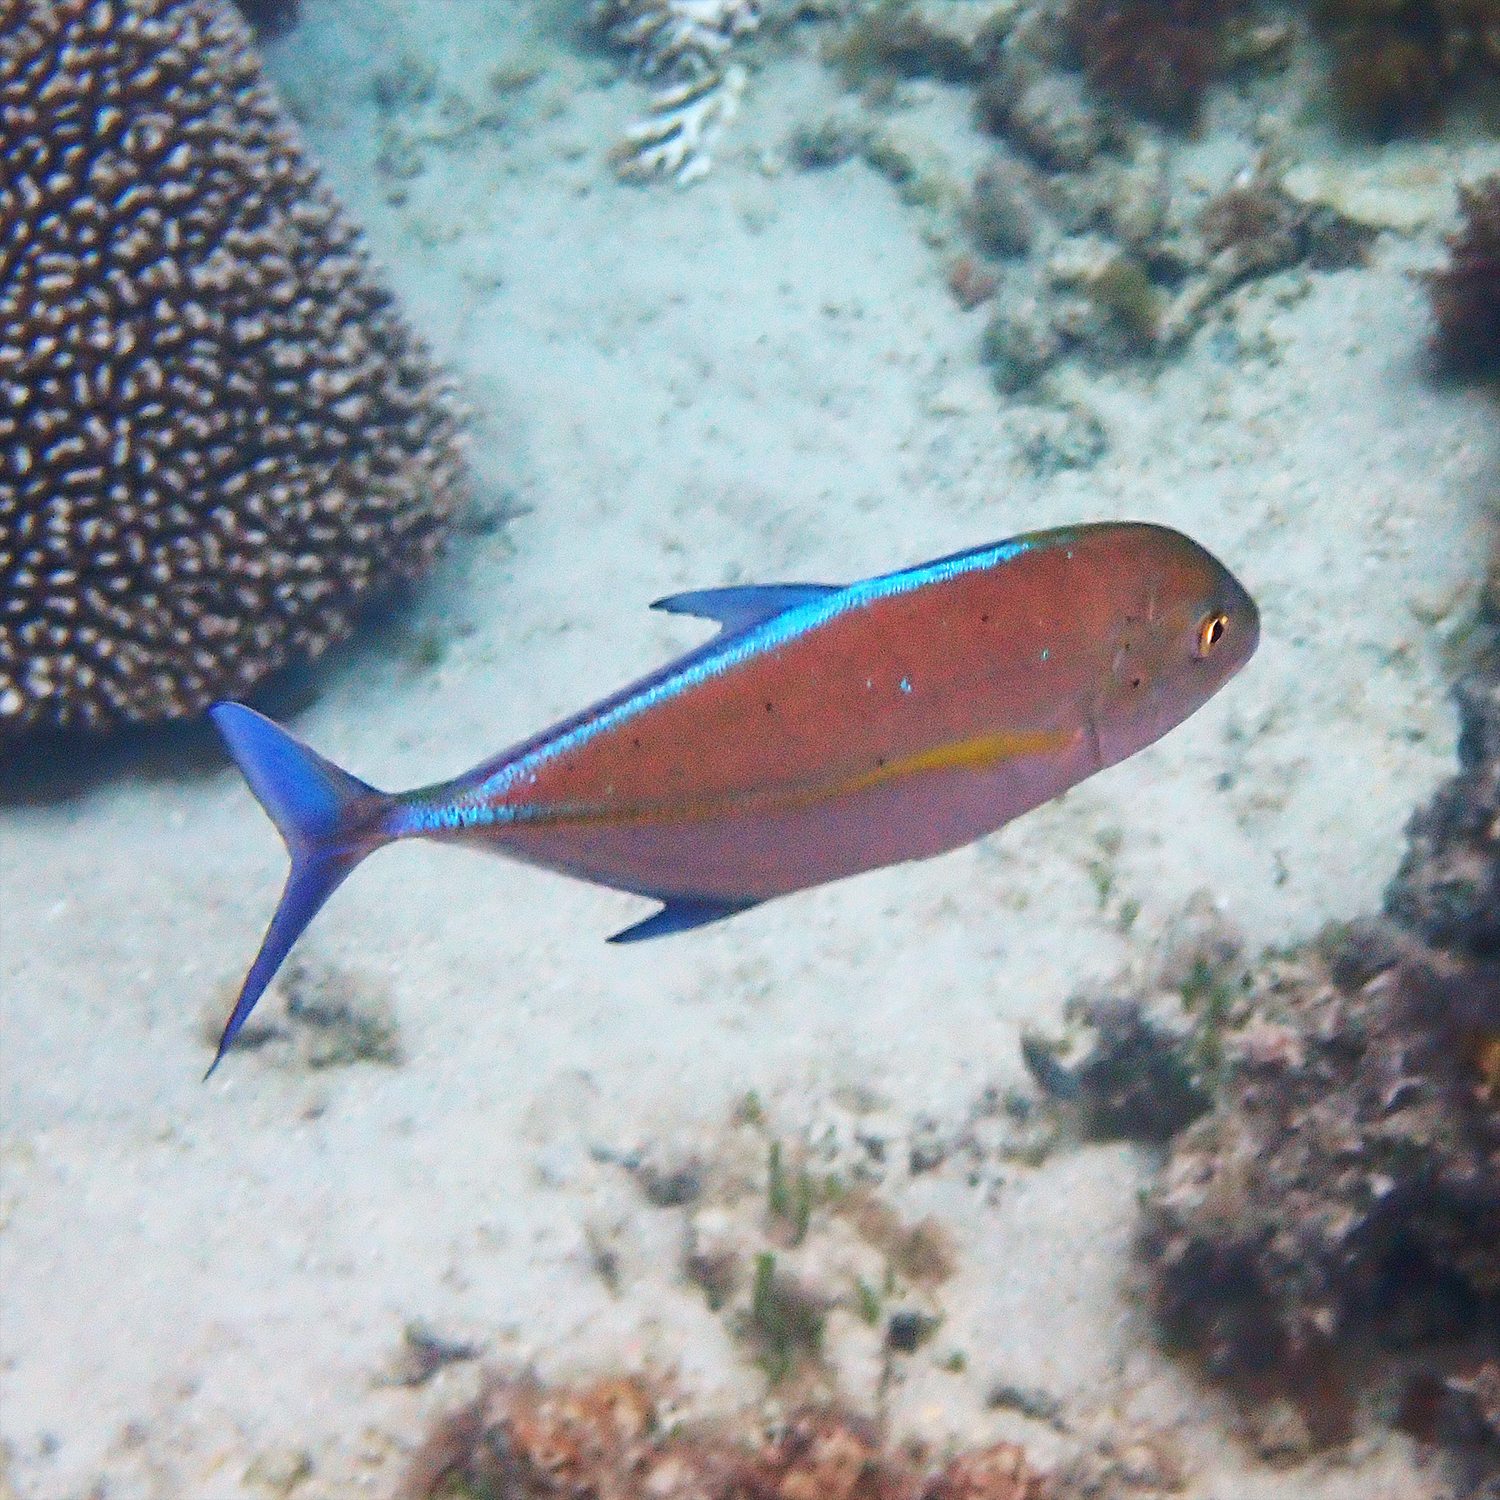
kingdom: Animalia
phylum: Chordata
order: Perciformes
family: Carangidae
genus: Caranx
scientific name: Caranx melampygus
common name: Bluefin trevally
